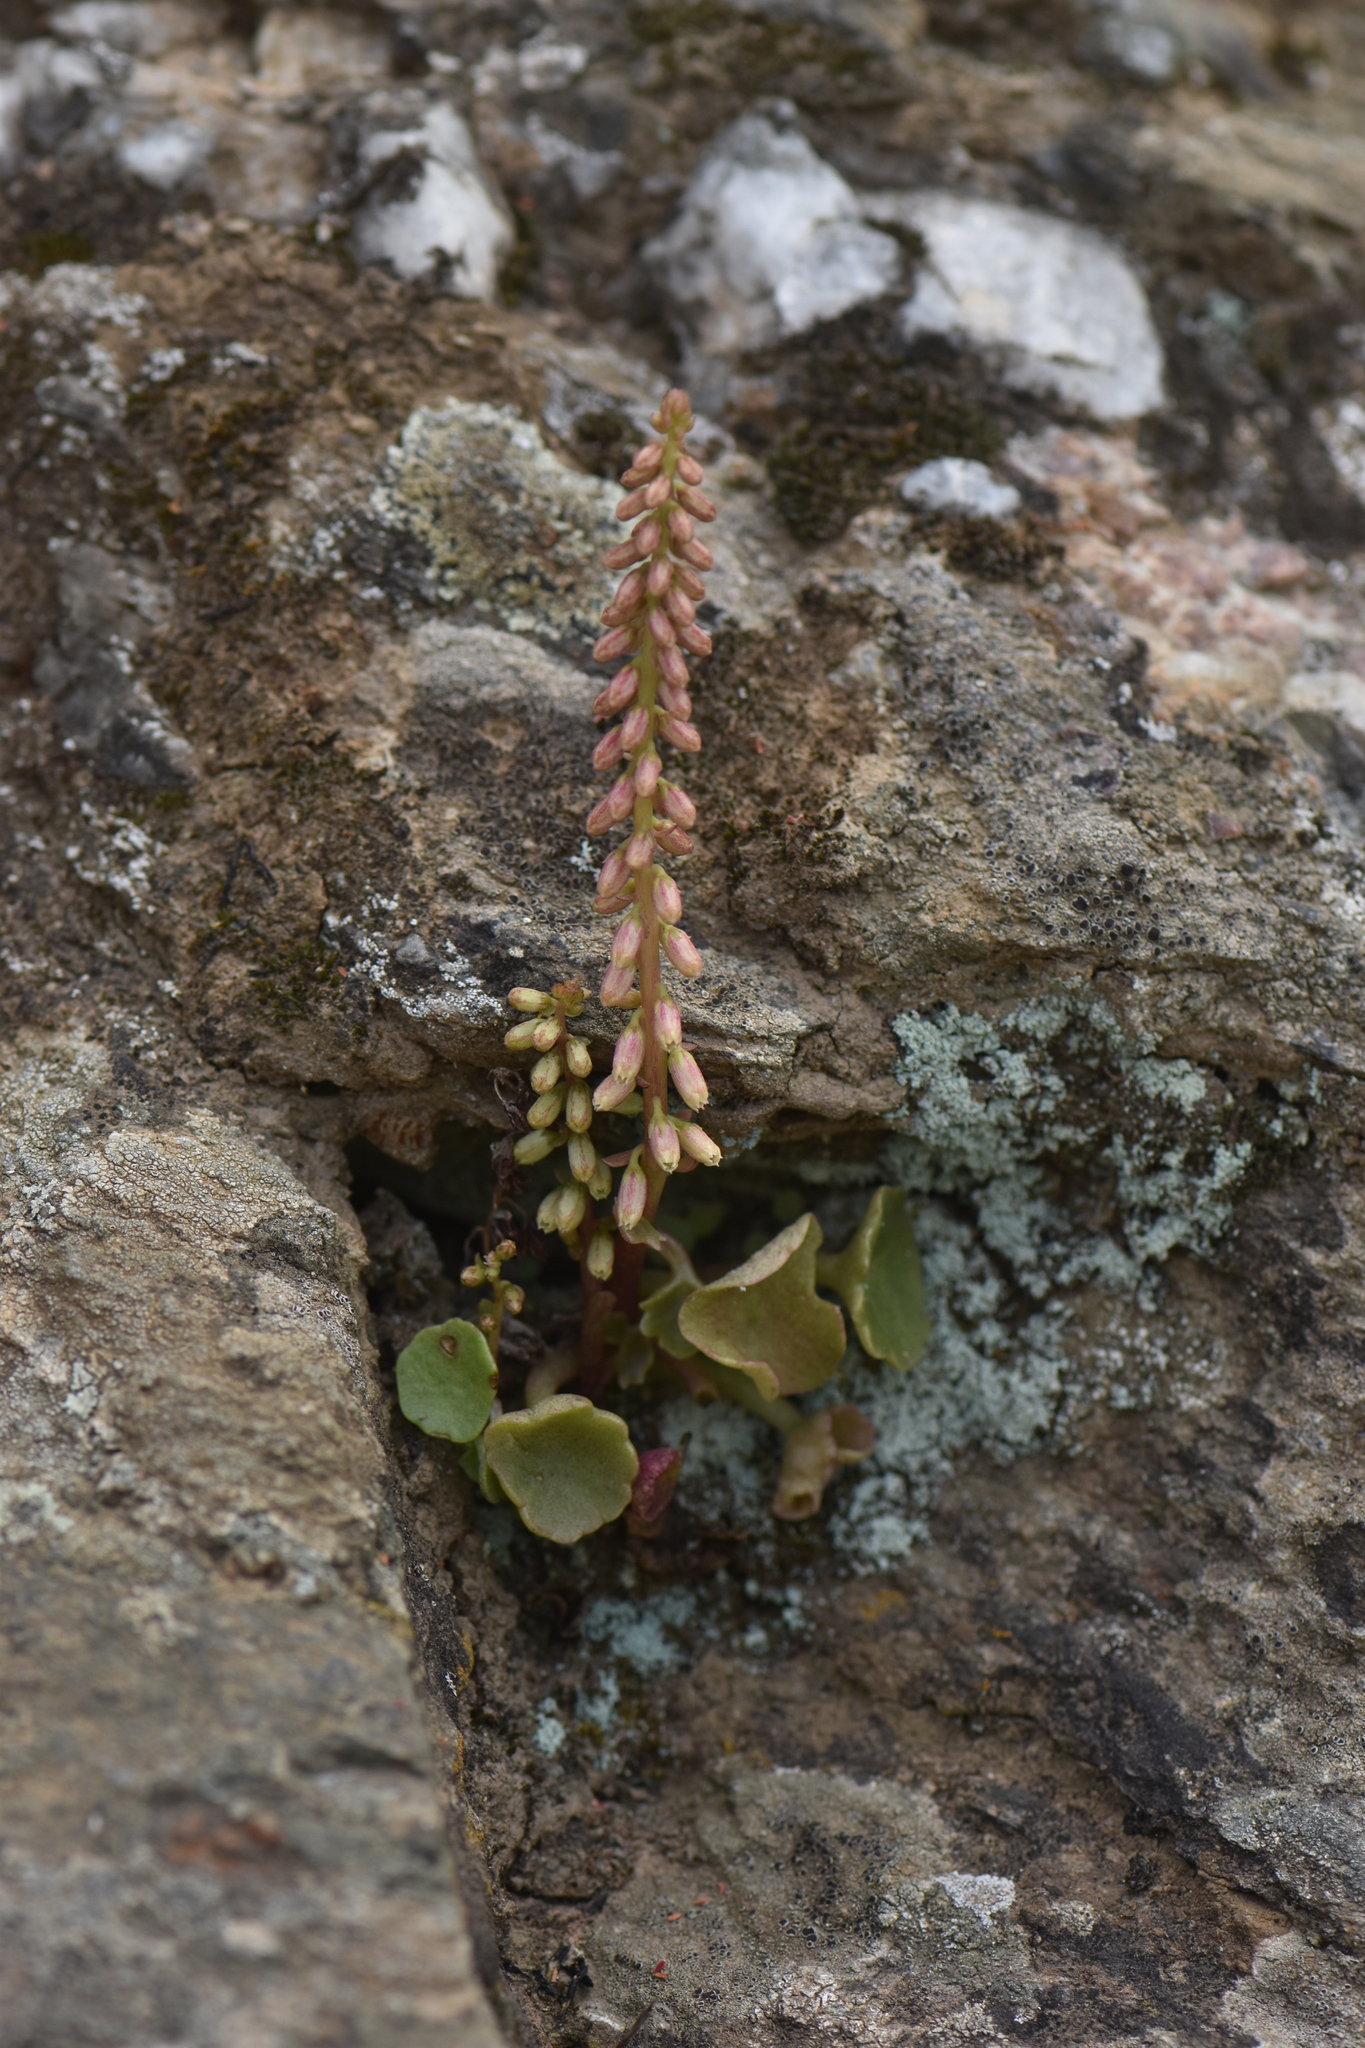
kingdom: Plantae
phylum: Tracheophyta
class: Magnoliopsida
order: Saxifragales
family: Crassulaceae
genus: Umbilicus
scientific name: Umbilicus rupestris
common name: Navelwort
